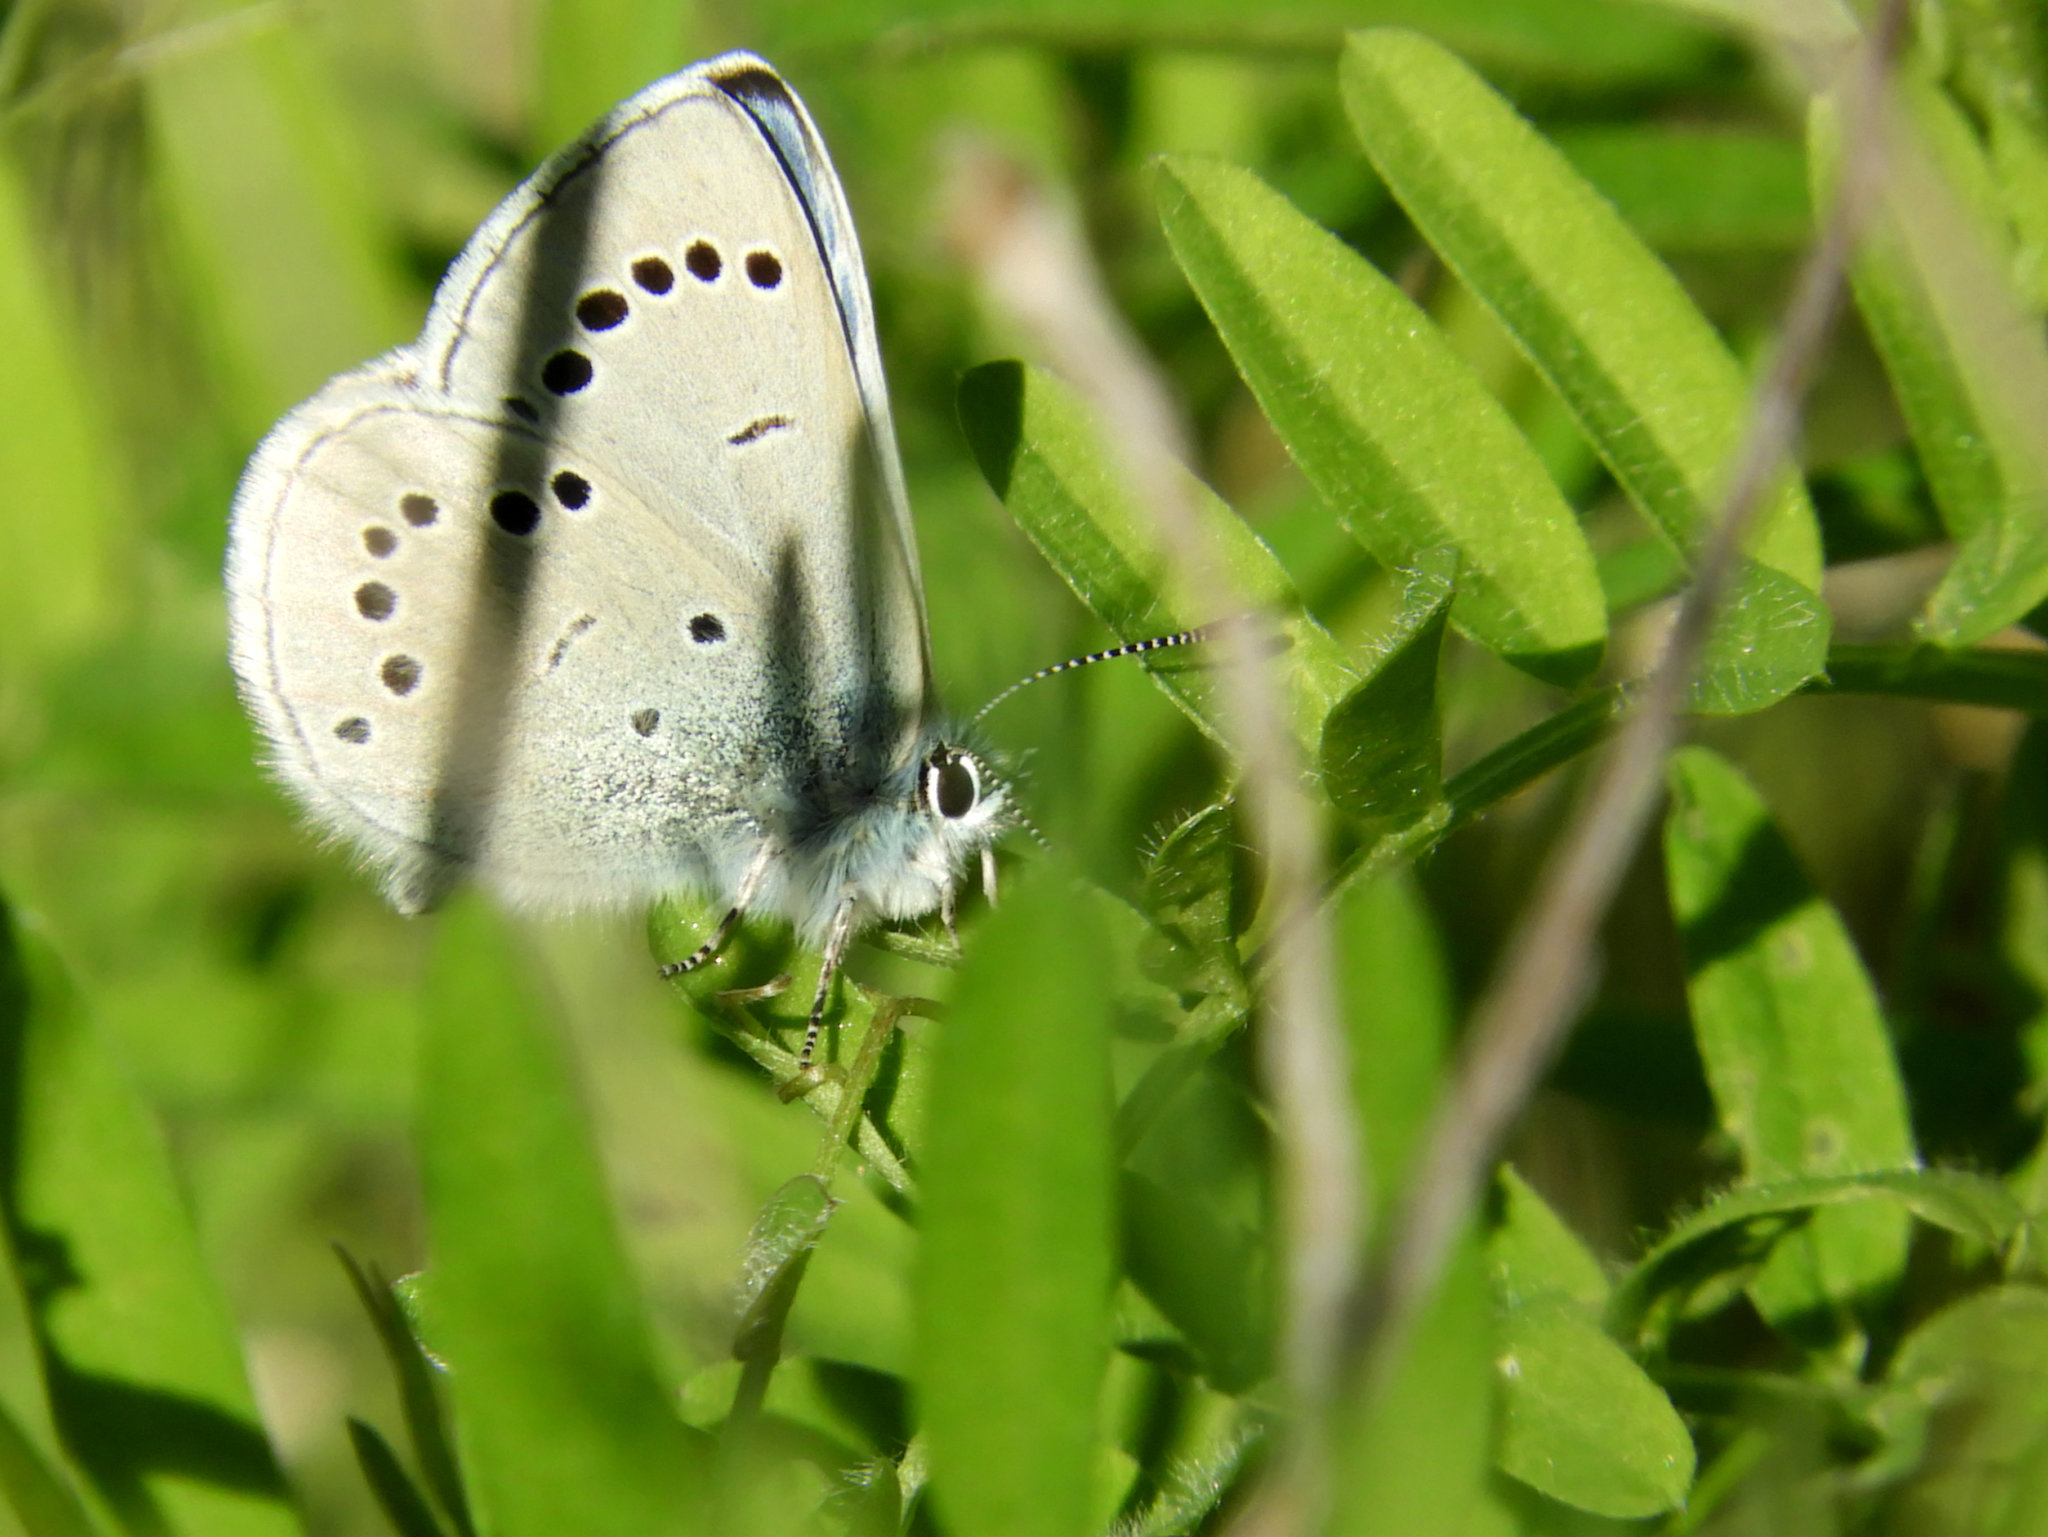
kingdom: Animalia
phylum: Arthropoda
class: Insecta
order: Lepidoptera
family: Lycaenidae
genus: Glaucopsyche
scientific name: Glaucopsyche lygdamus
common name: Silvery blue
